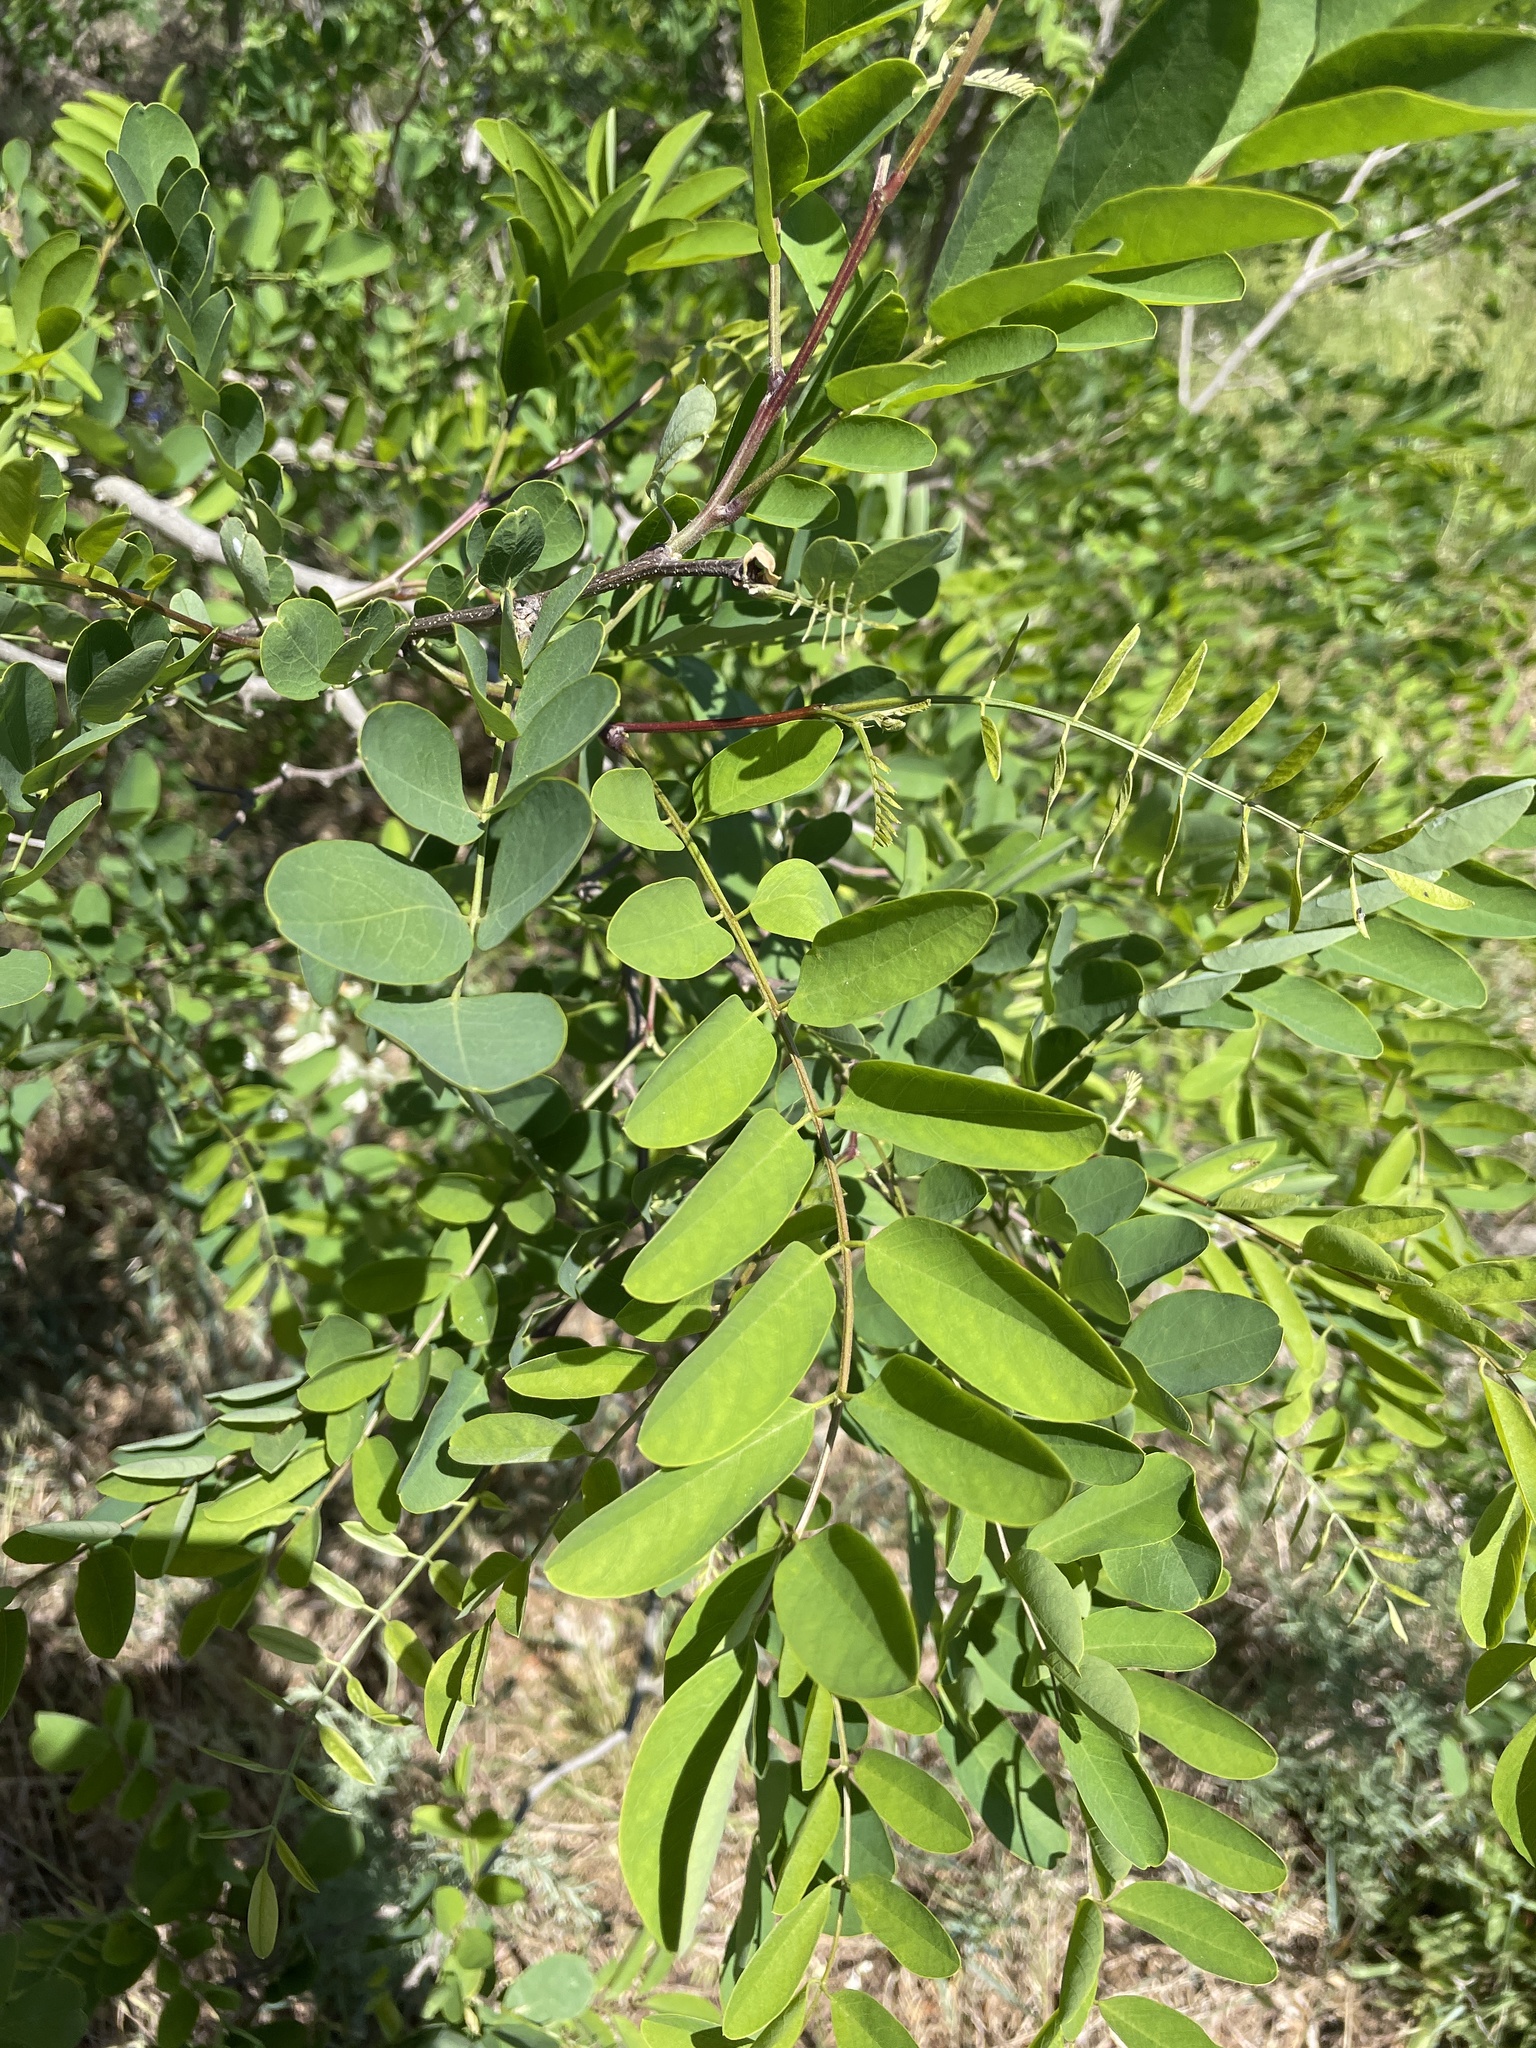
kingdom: Plantae
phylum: Tracheophyta
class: Magnoliopsida
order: Fabales
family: Fabaceae
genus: Robinia
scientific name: Robinia pseudoacacia
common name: Black locust
